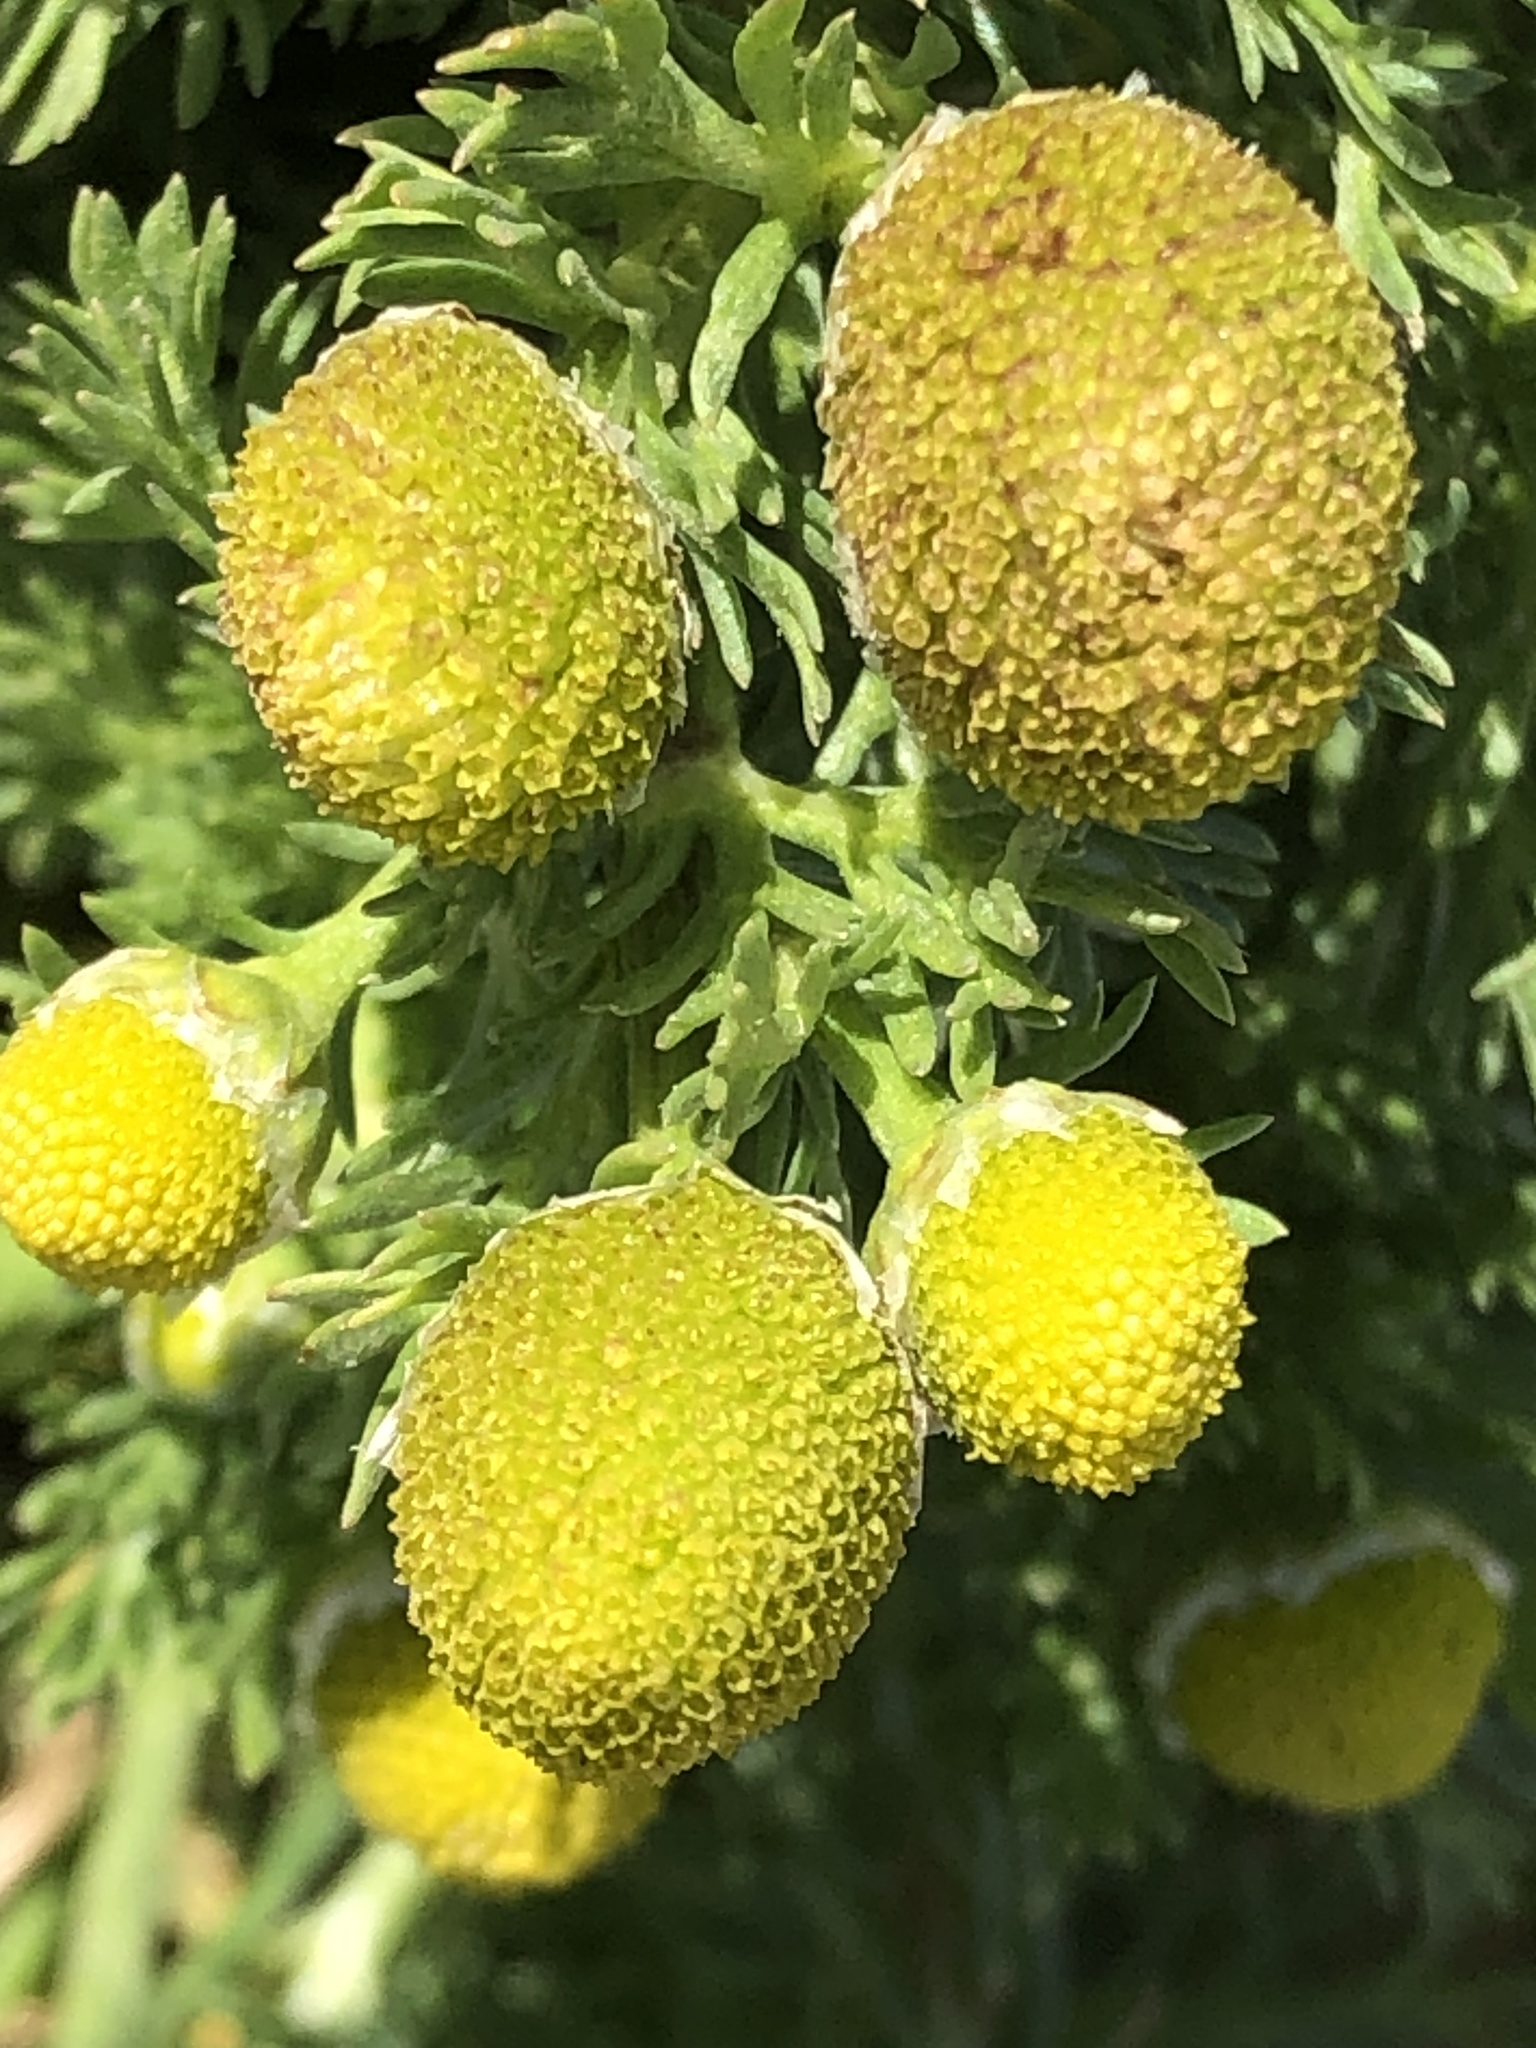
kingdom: Plantae
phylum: Tracheophyta
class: Magnoliopsida
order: Asterales
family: Asteraceae
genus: Matricaria
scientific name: Matricaria discoidea
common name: Disc mayweed
